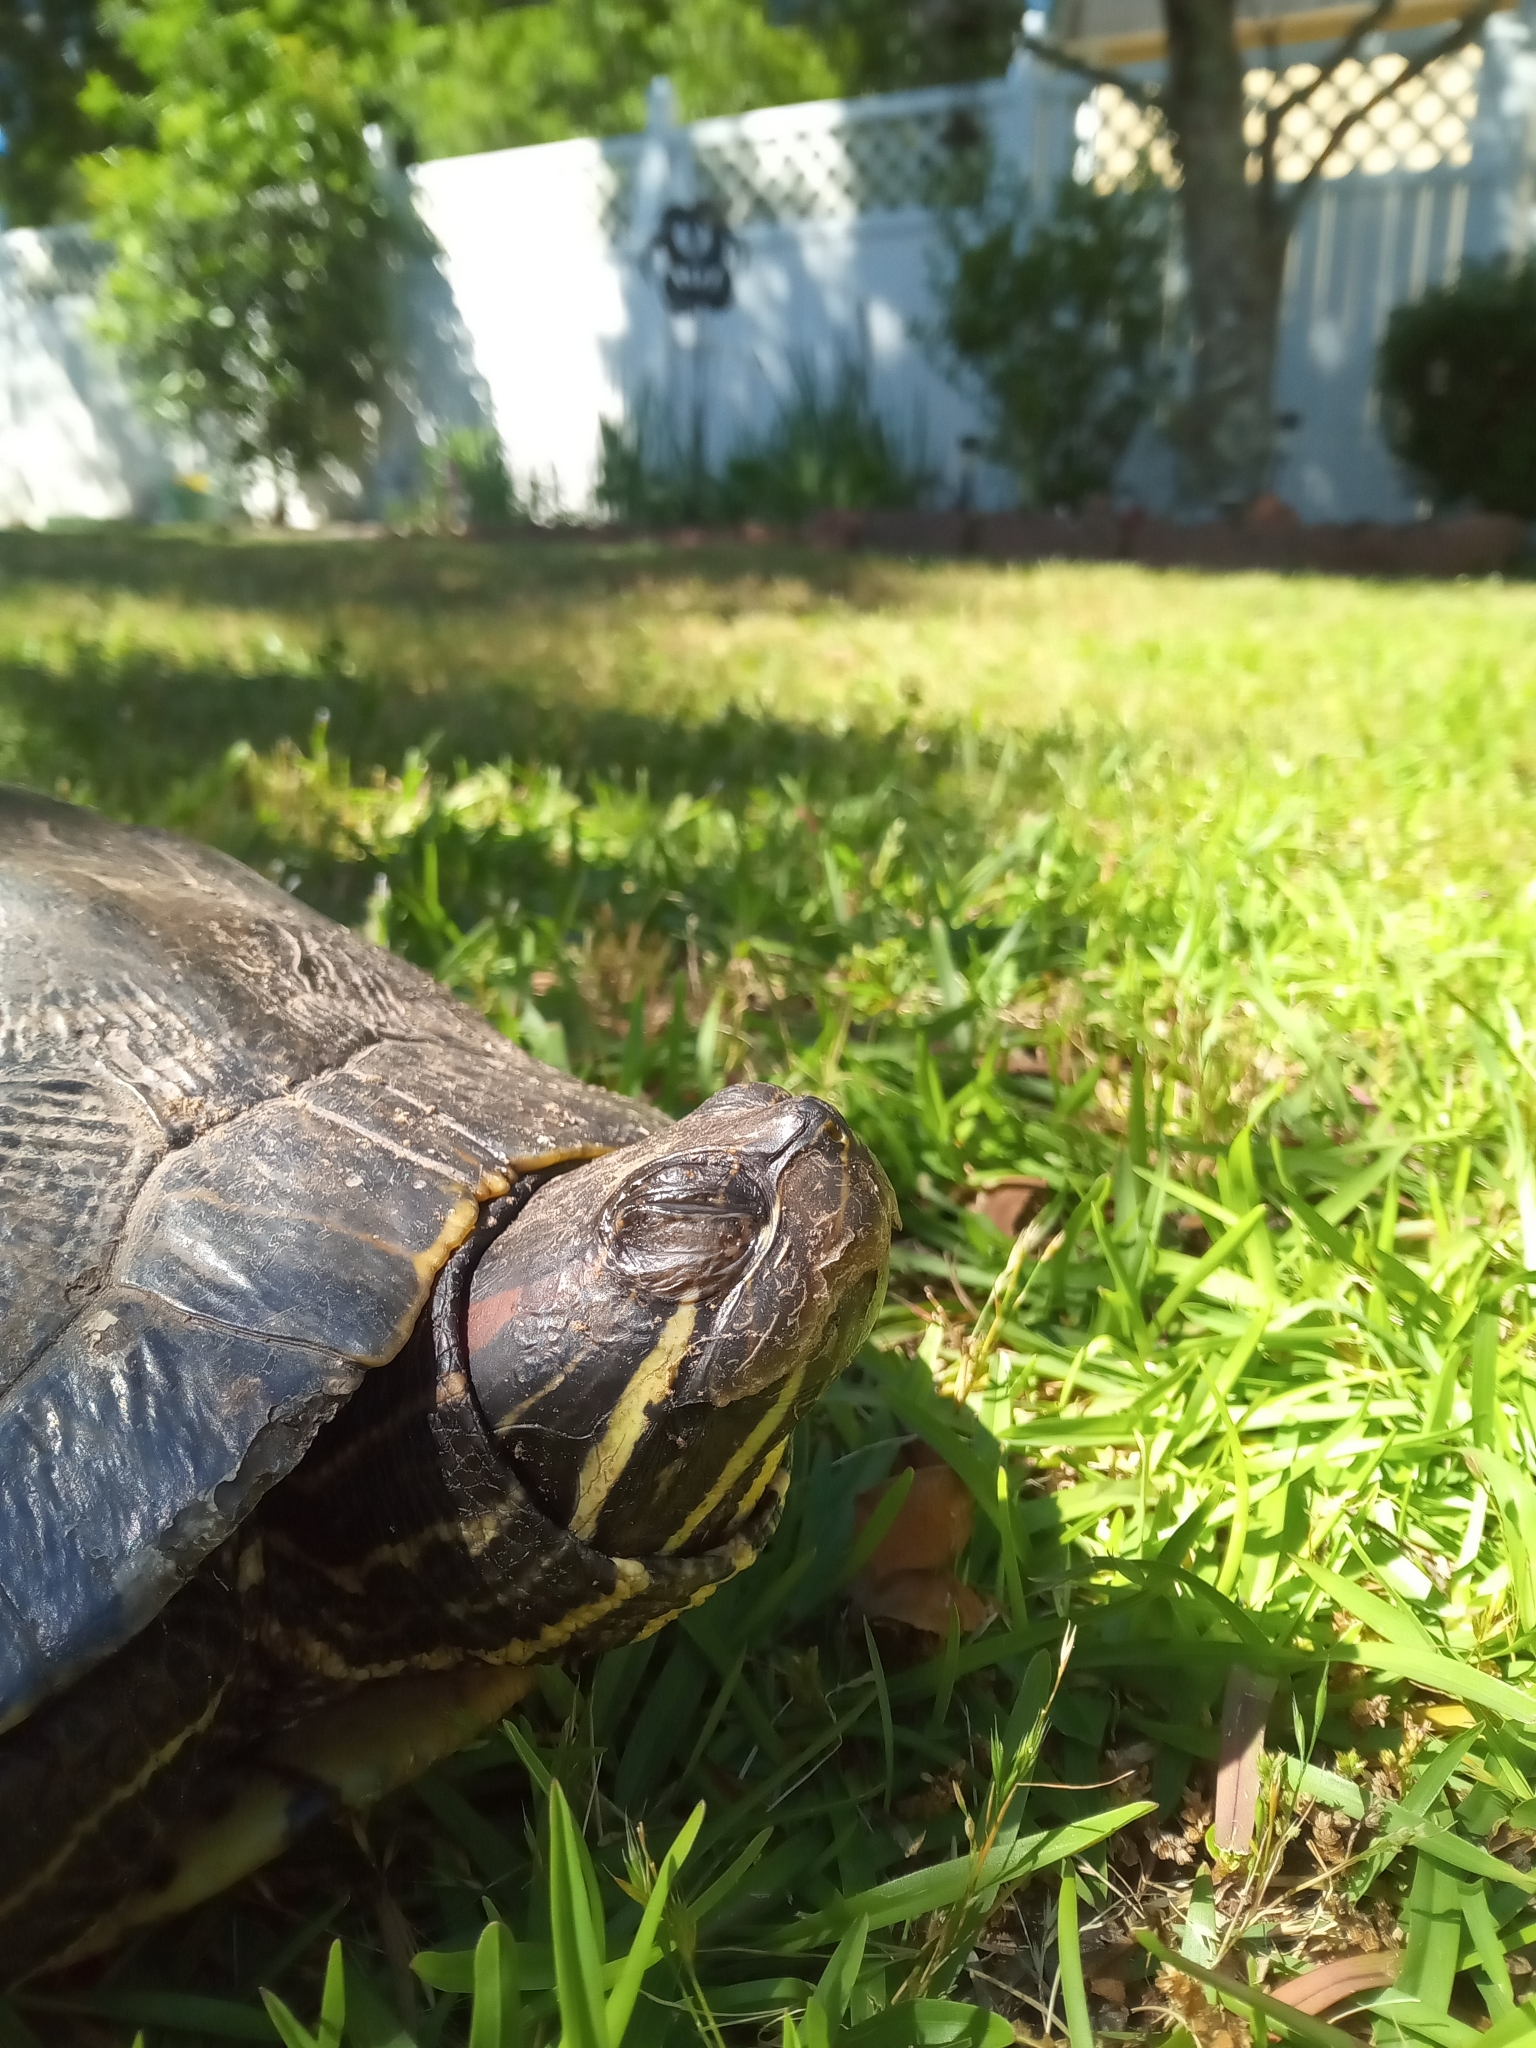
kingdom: Animalia
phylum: Chordata
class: Testudines
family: Emydidae
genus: Trachemys
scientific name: Trachemys scripta
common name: Slider
